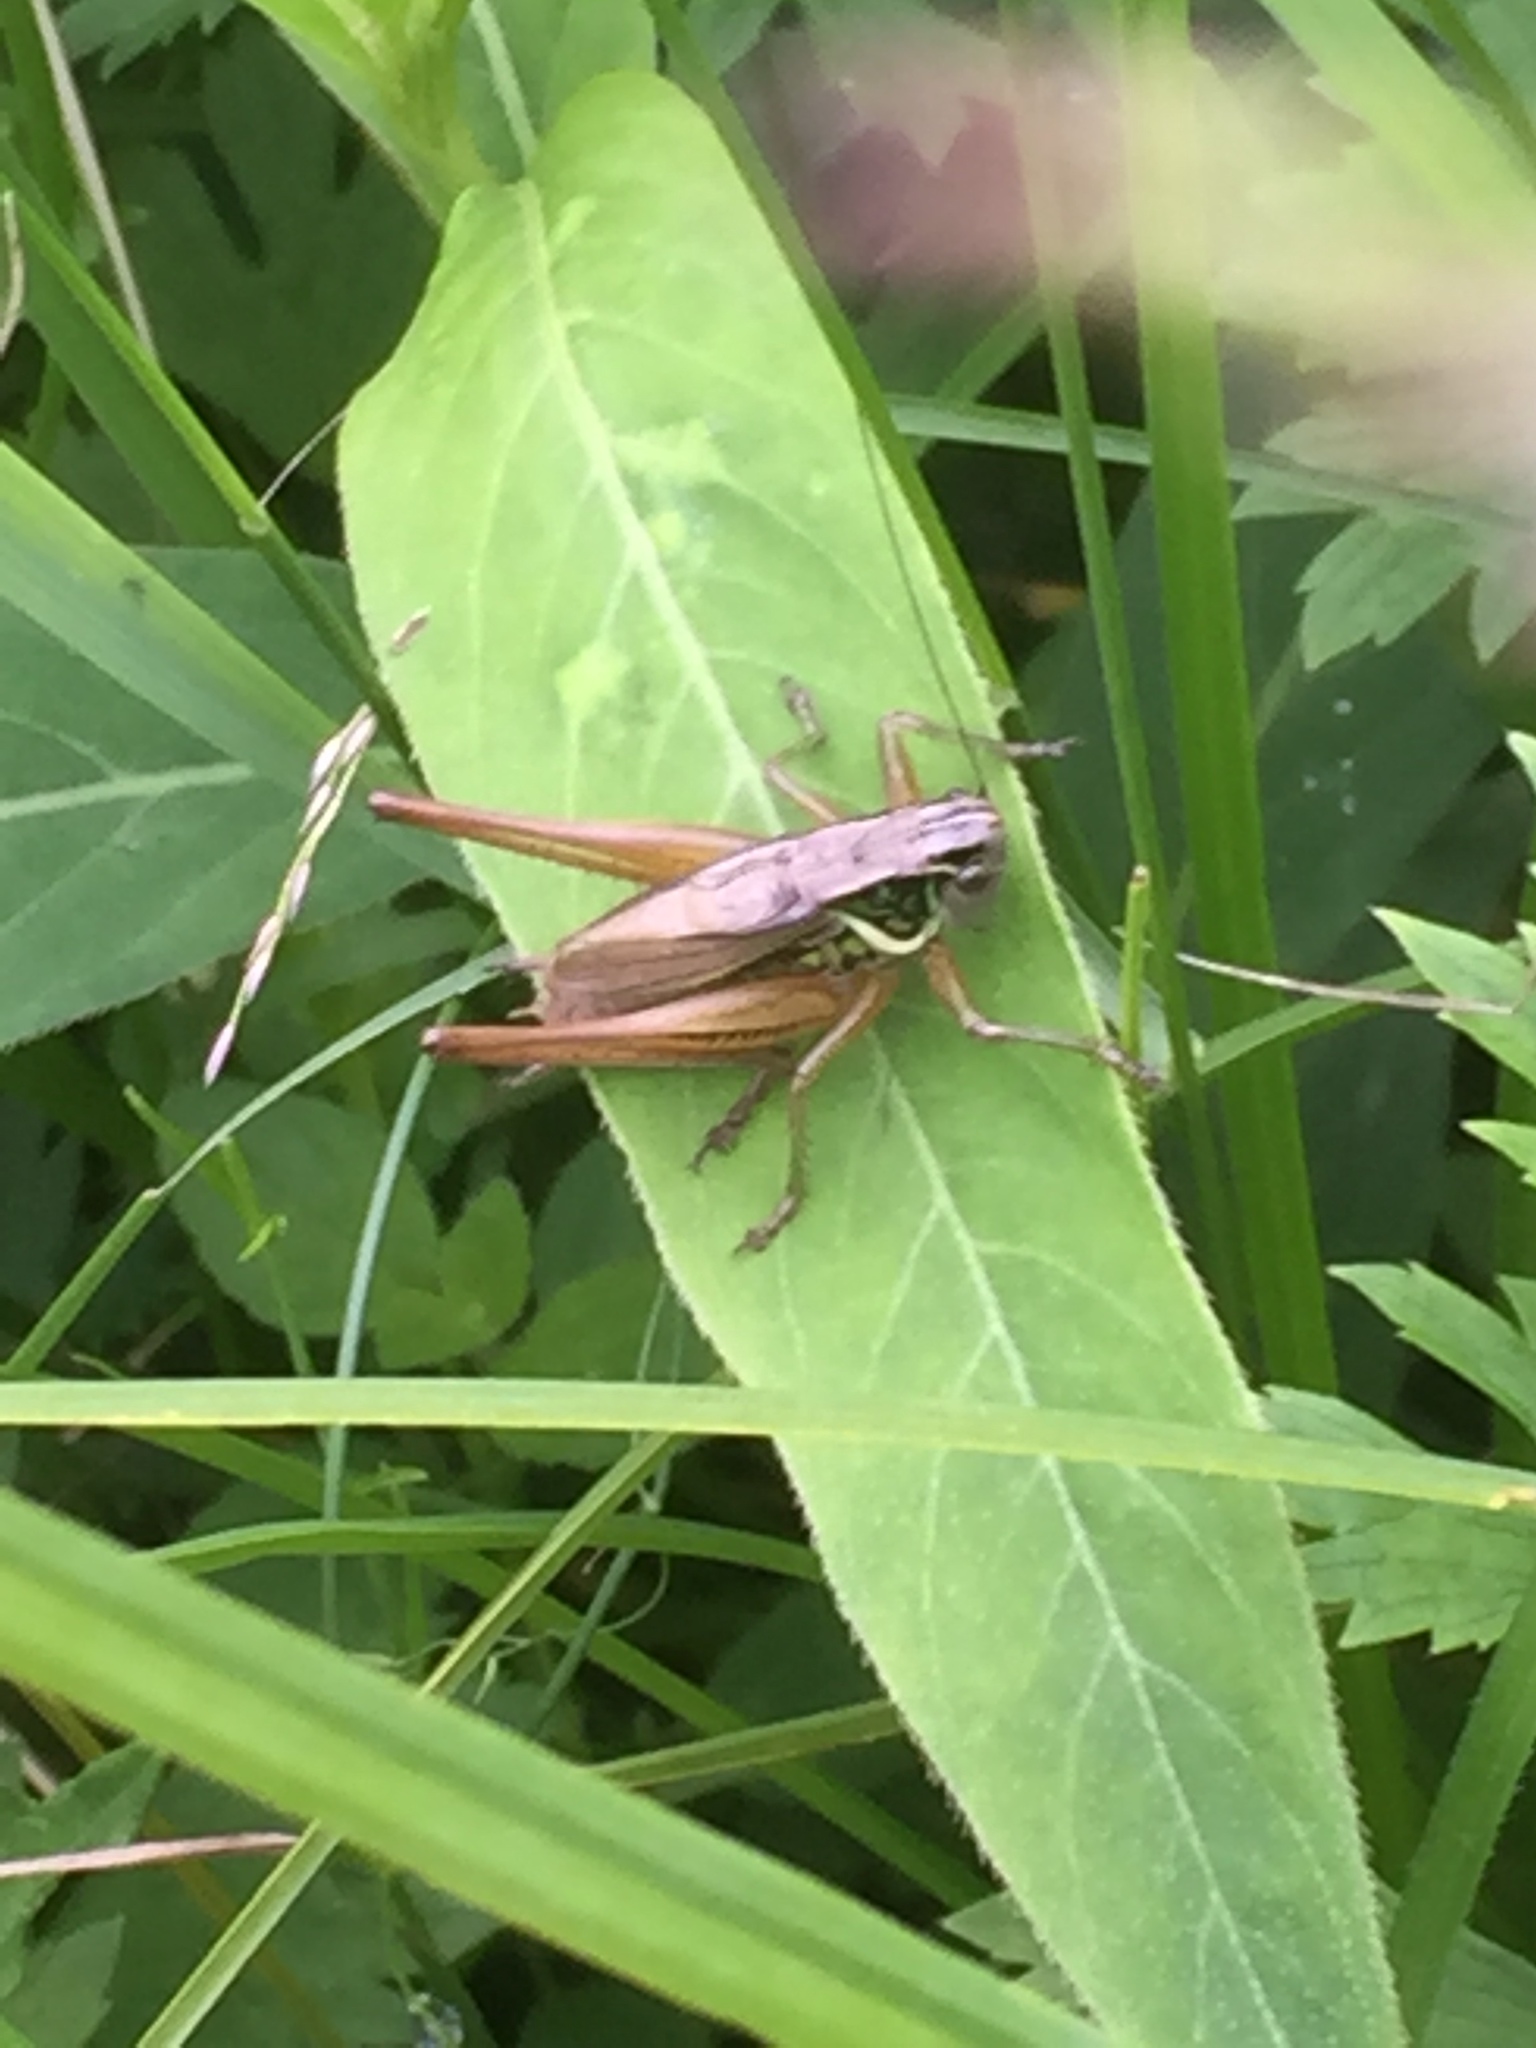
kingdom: Animalia
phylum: Arthropoda
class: Insecta
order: Orthoptera
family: Tettigoniidae
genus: Roeseliana
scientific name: Roeseliana roeselii
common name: Roesel's bush cricket
